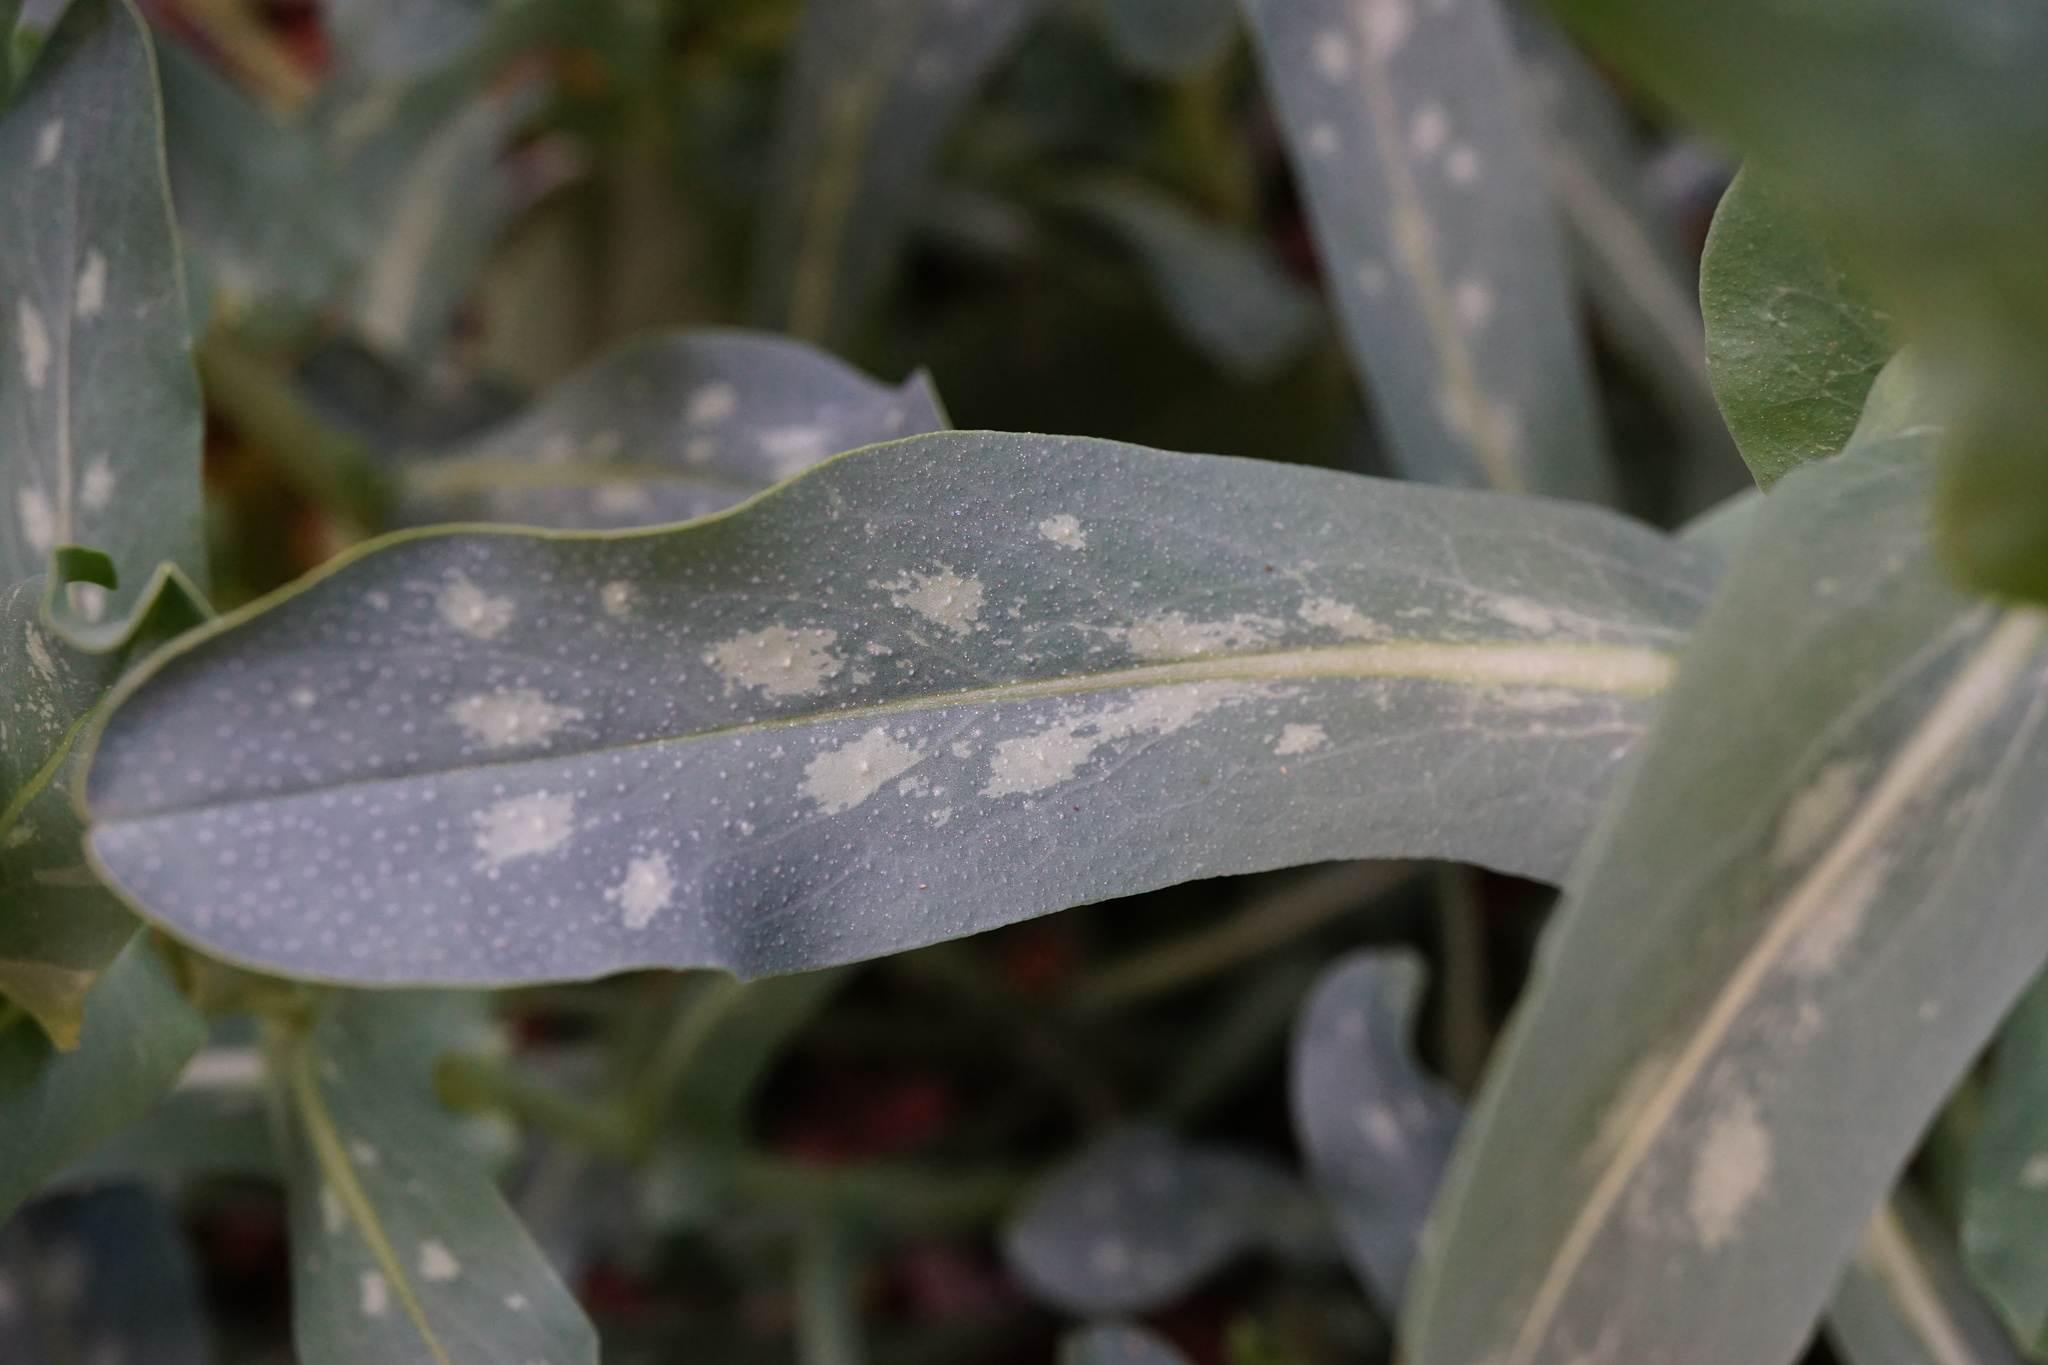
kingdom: Plantae
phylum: Tracheophyta
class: Magnoliopsida
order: Boraginales
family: Boraginaceae
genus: Cerinthe
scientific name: Cerinthe minor
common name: Lesser honeywort
